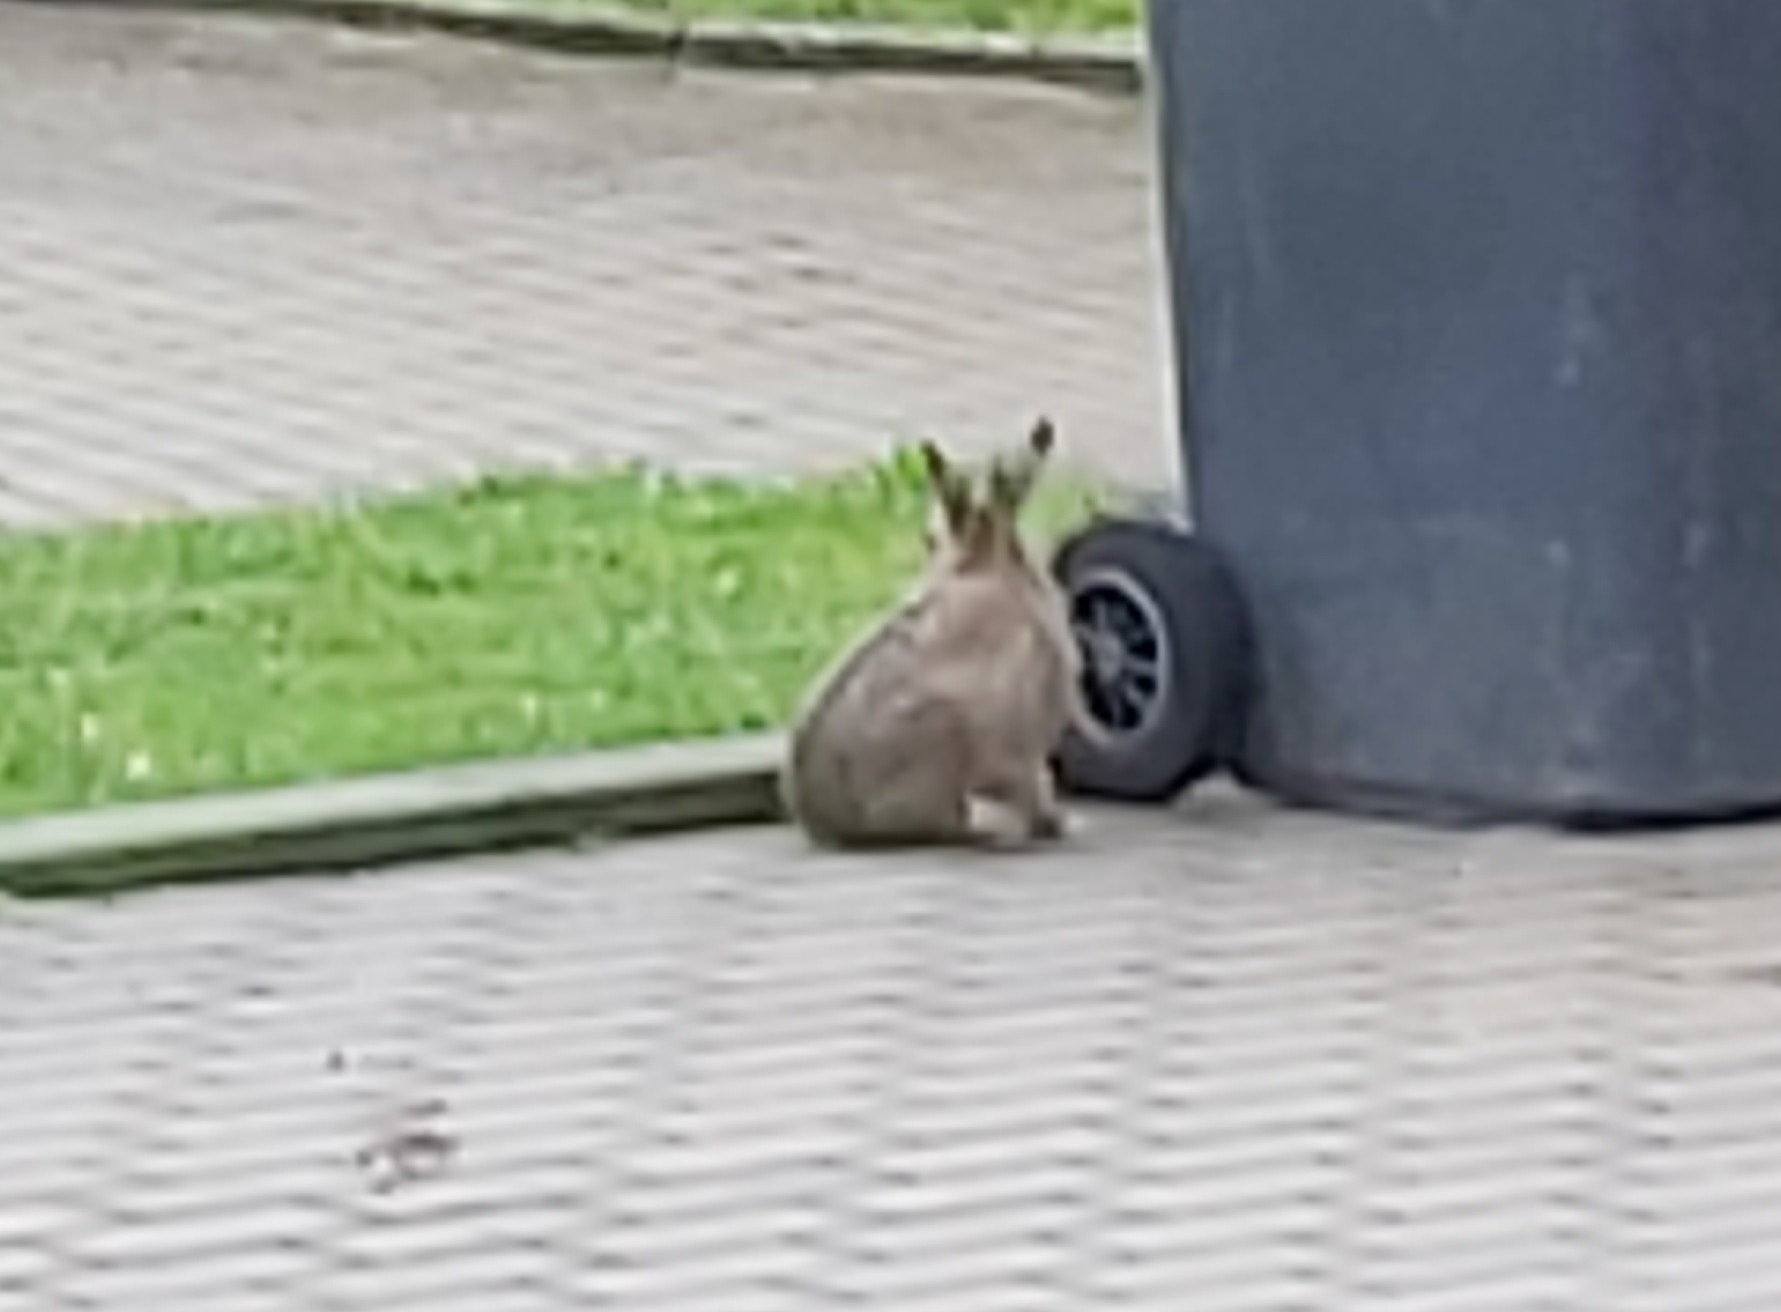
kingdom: Animalia
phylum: Chordata
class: Mammalia
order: Lagomorpha
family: Leporidae
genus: Lepus
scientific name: Lepus europaeus
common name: European hare
